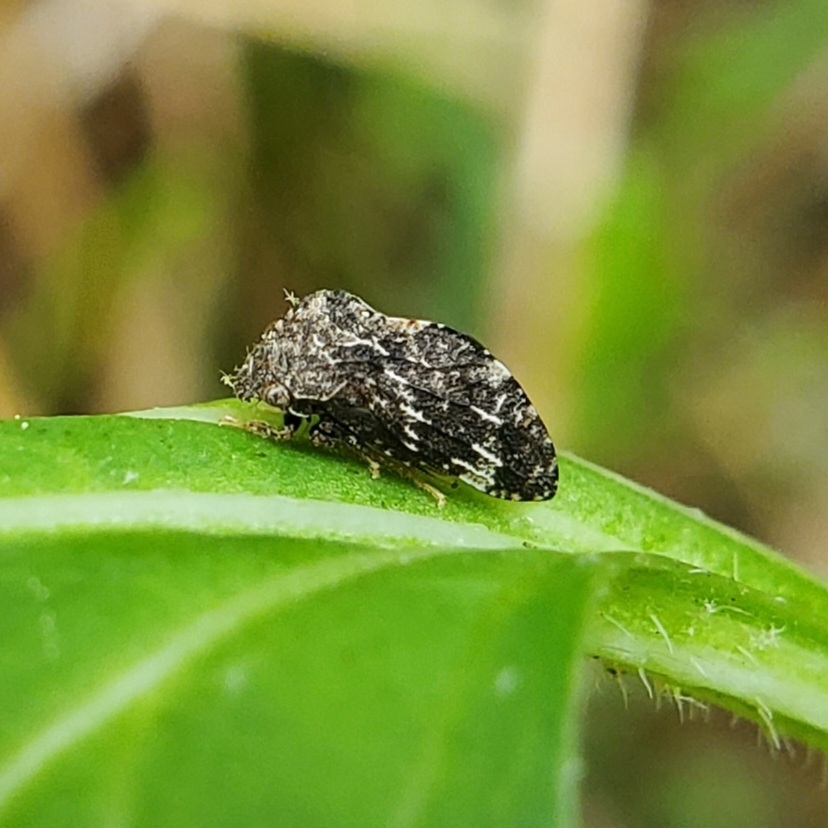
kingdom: Animalia
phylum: Arthropoda
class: Insecta
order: Hemiptera
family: Membracidae
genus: Publilia
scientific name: Publilia concava
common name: Aster treehopper
